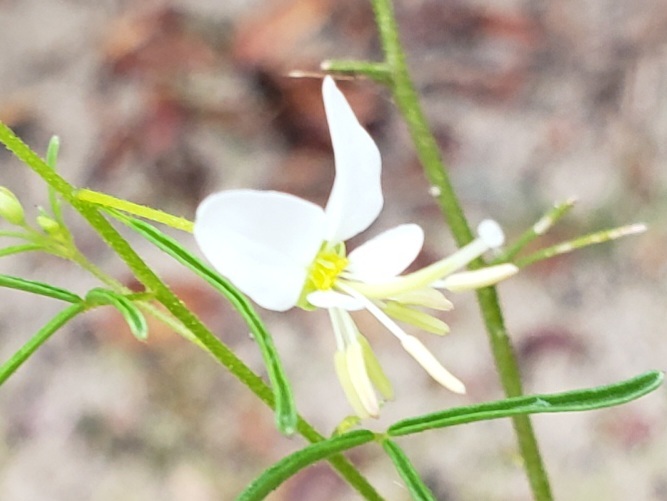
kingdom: Plantae
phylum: Tracheophyta
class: Magnoliopsida
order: Brassicales
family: Cleomaceae
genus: Polanisia
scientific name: Polanisia tenuifolia
